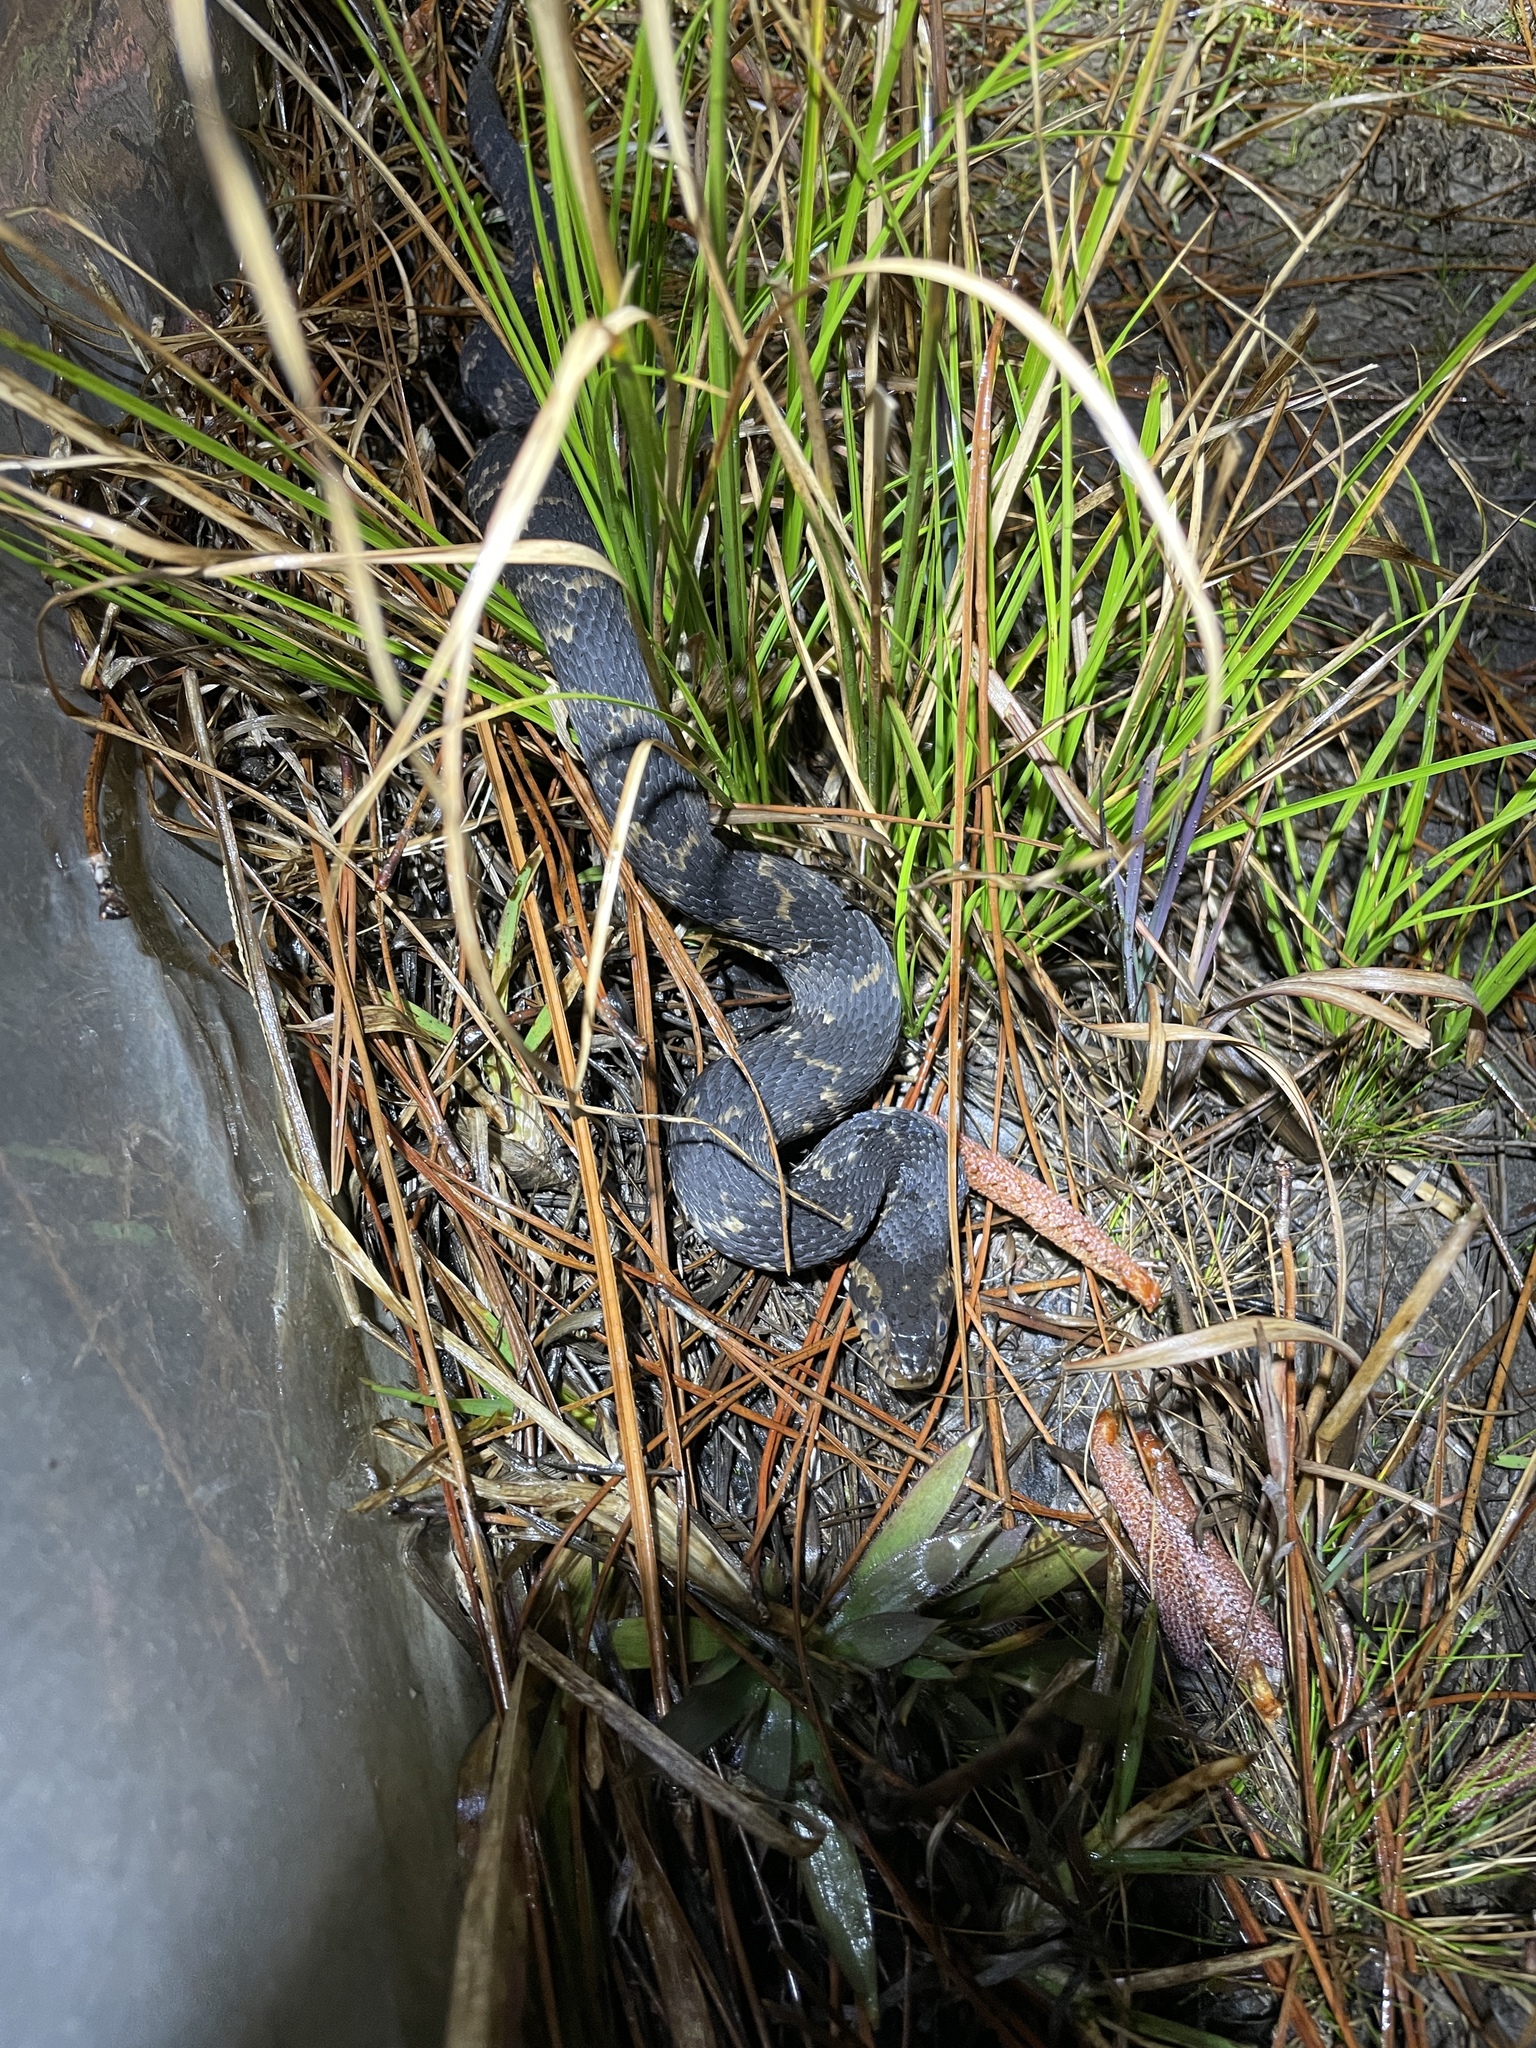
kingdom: Animalia
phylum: Chordata
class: Squamata
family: Colubridae
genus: Nerodia
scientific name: Nerodia fasciata
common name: Southern water snake
